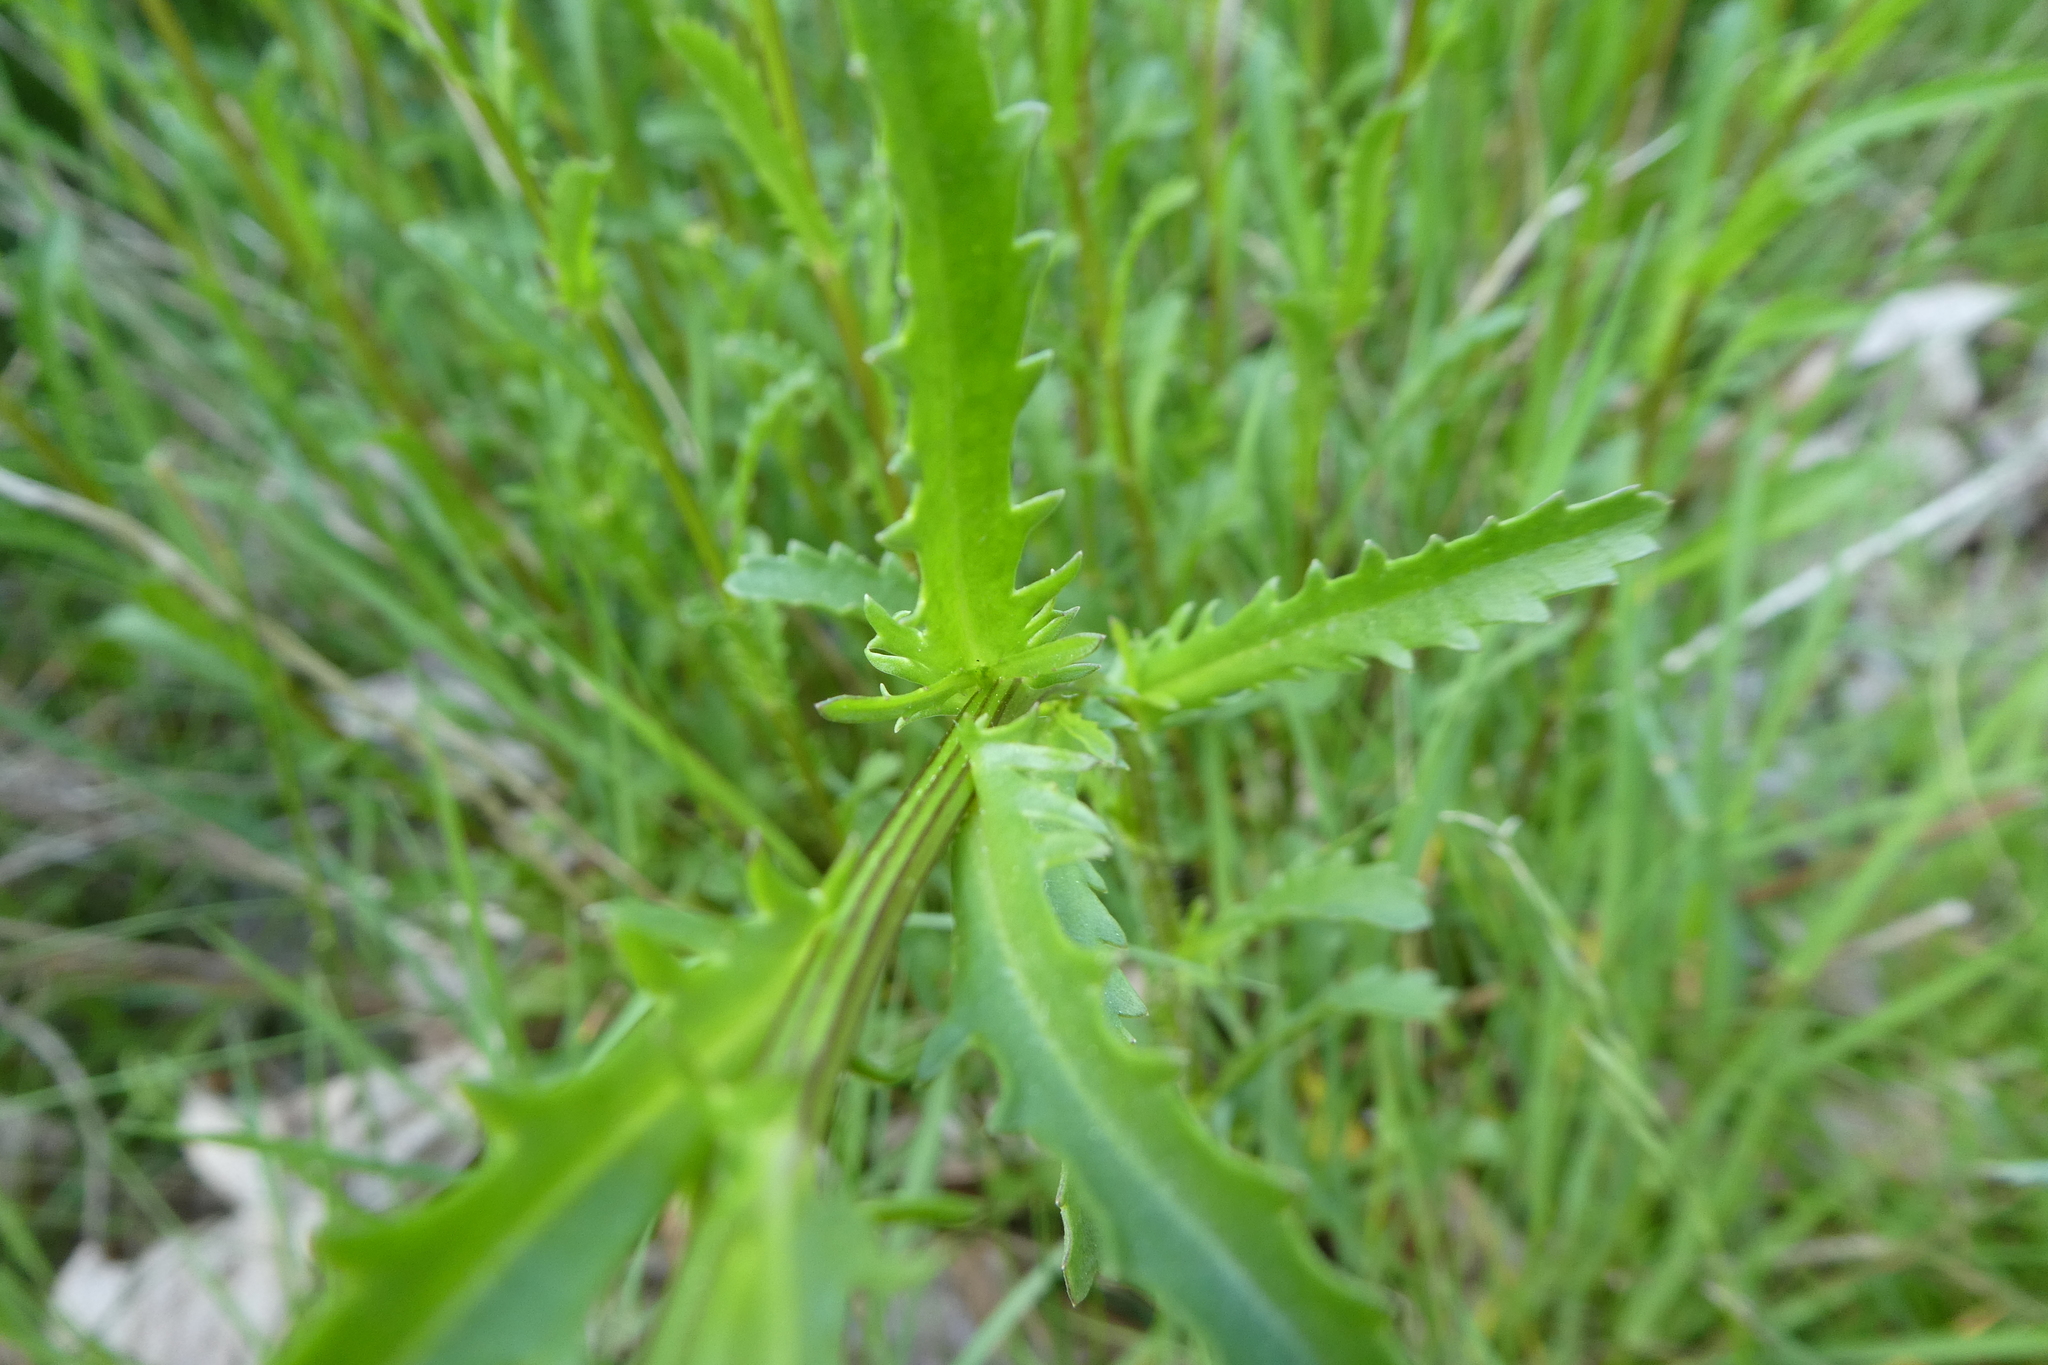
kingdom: Plantae
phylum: Tracheophyta
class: Magnoliopsida
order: Asterales
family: Asteraceae
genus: Leucanthemum
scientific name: Leucanthemum vulgare
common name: Oxeye daisy
